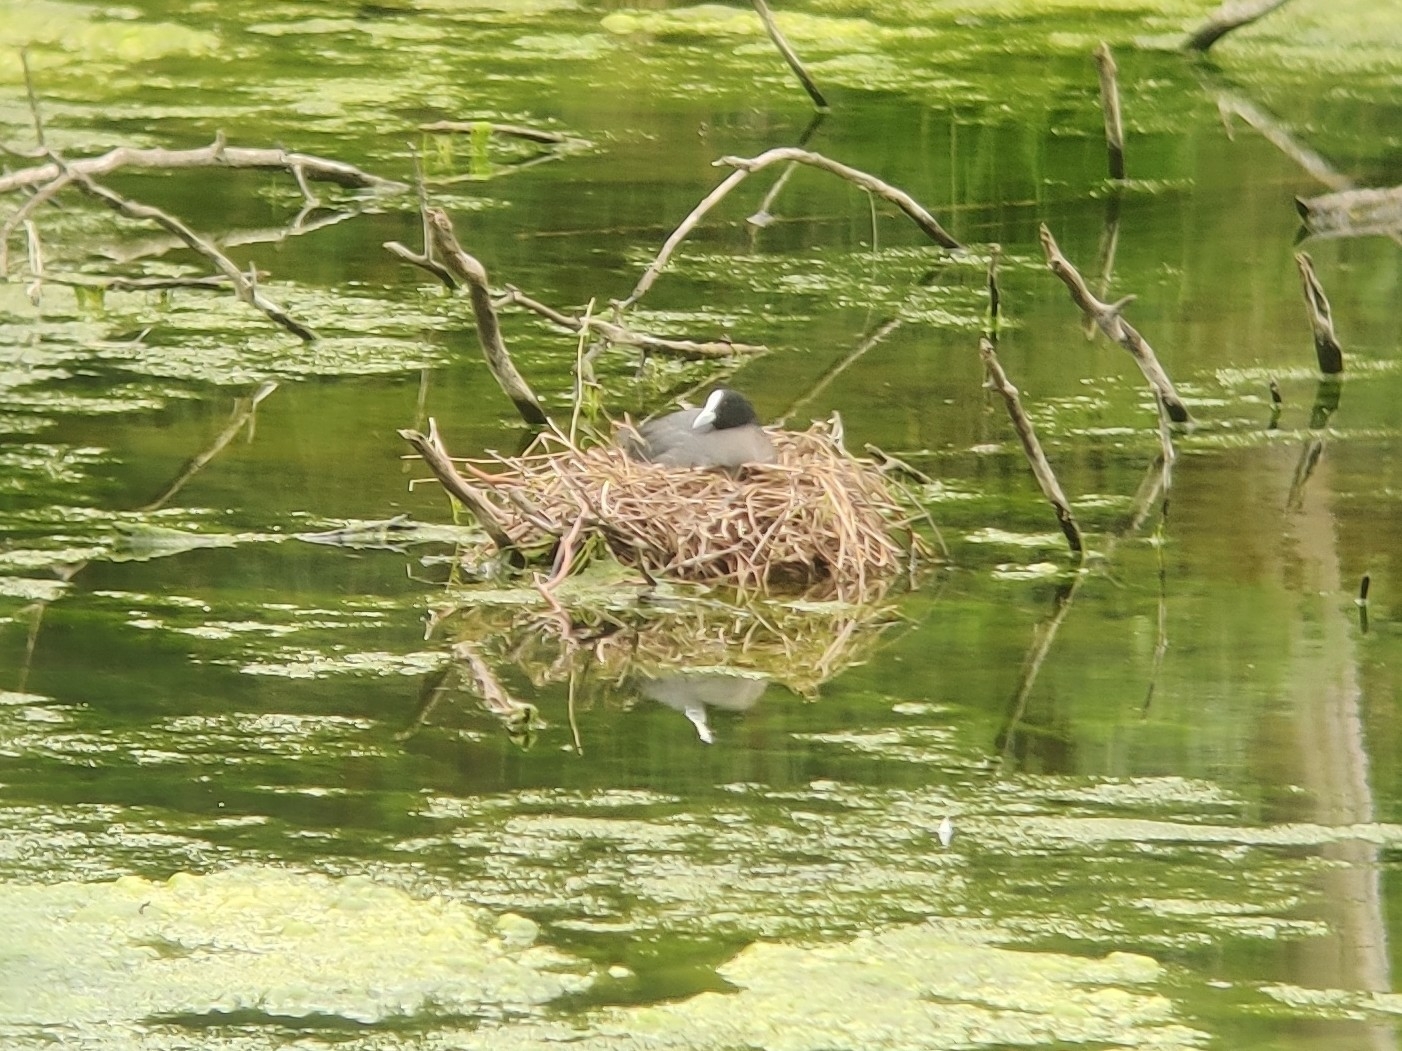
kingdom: Animalia
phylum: Chordata
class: Aves
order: Gruiformes
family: Rallidae
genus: Fulica
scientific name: Fulica atra
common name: Eurasian coot
